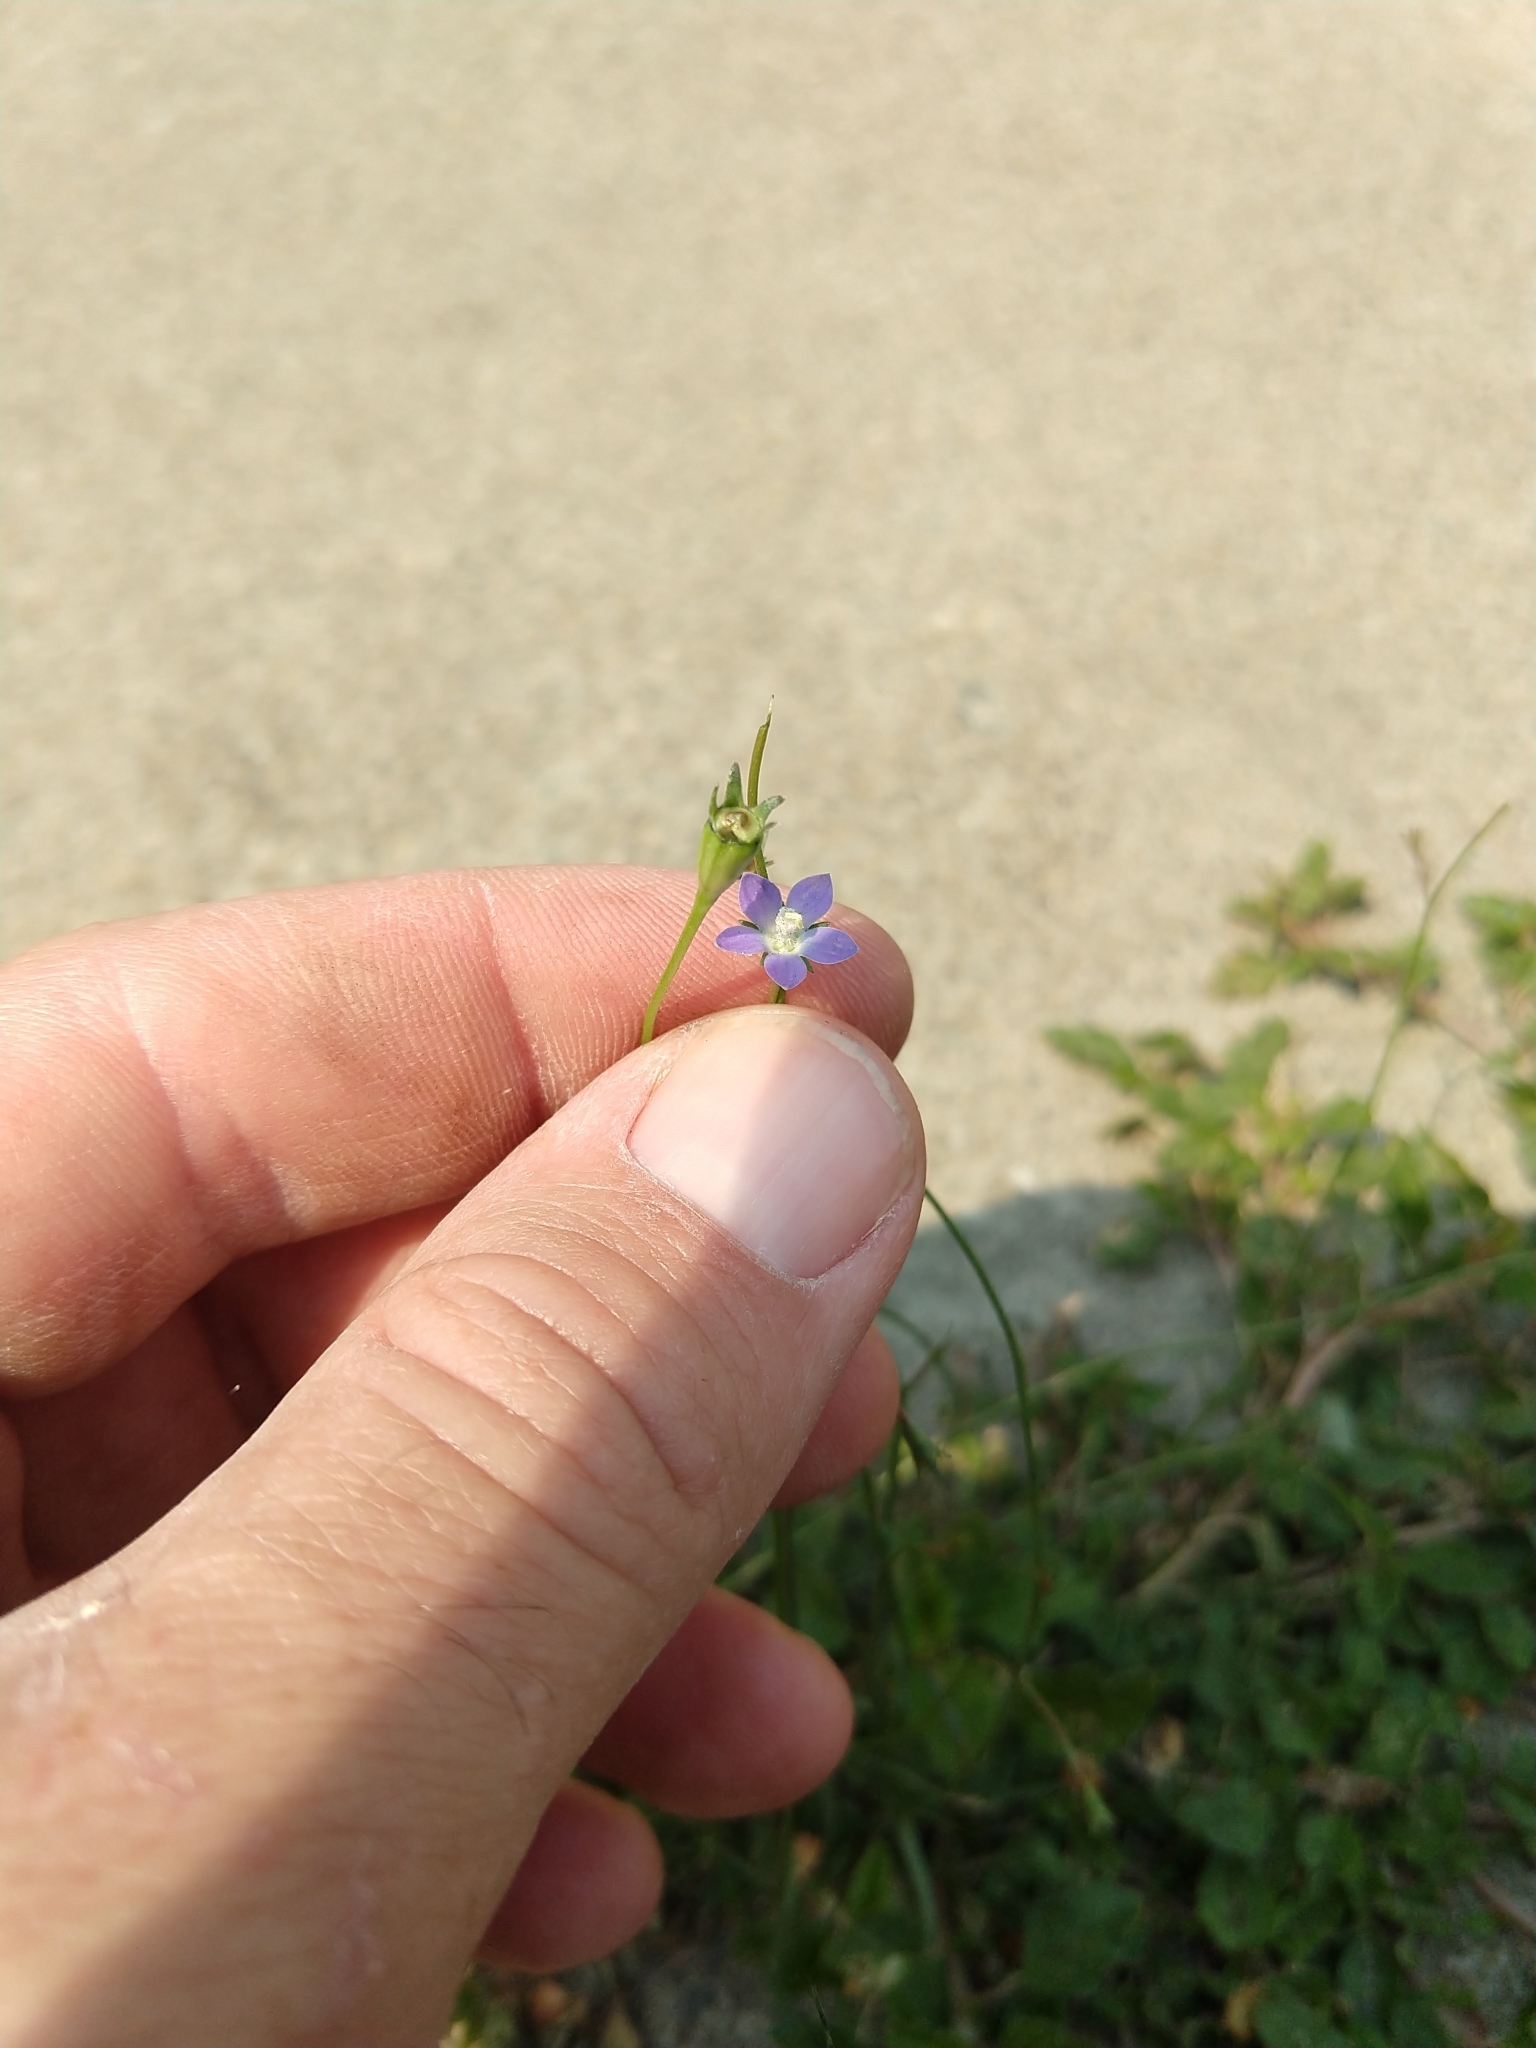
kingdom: Plantae
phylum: Tracheophyta
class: Magnoliopsida
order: Asterales
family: Campanulaceae
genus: Wahlenbergia
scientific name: Wahlenbergia marginata
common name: Southern rockbell
